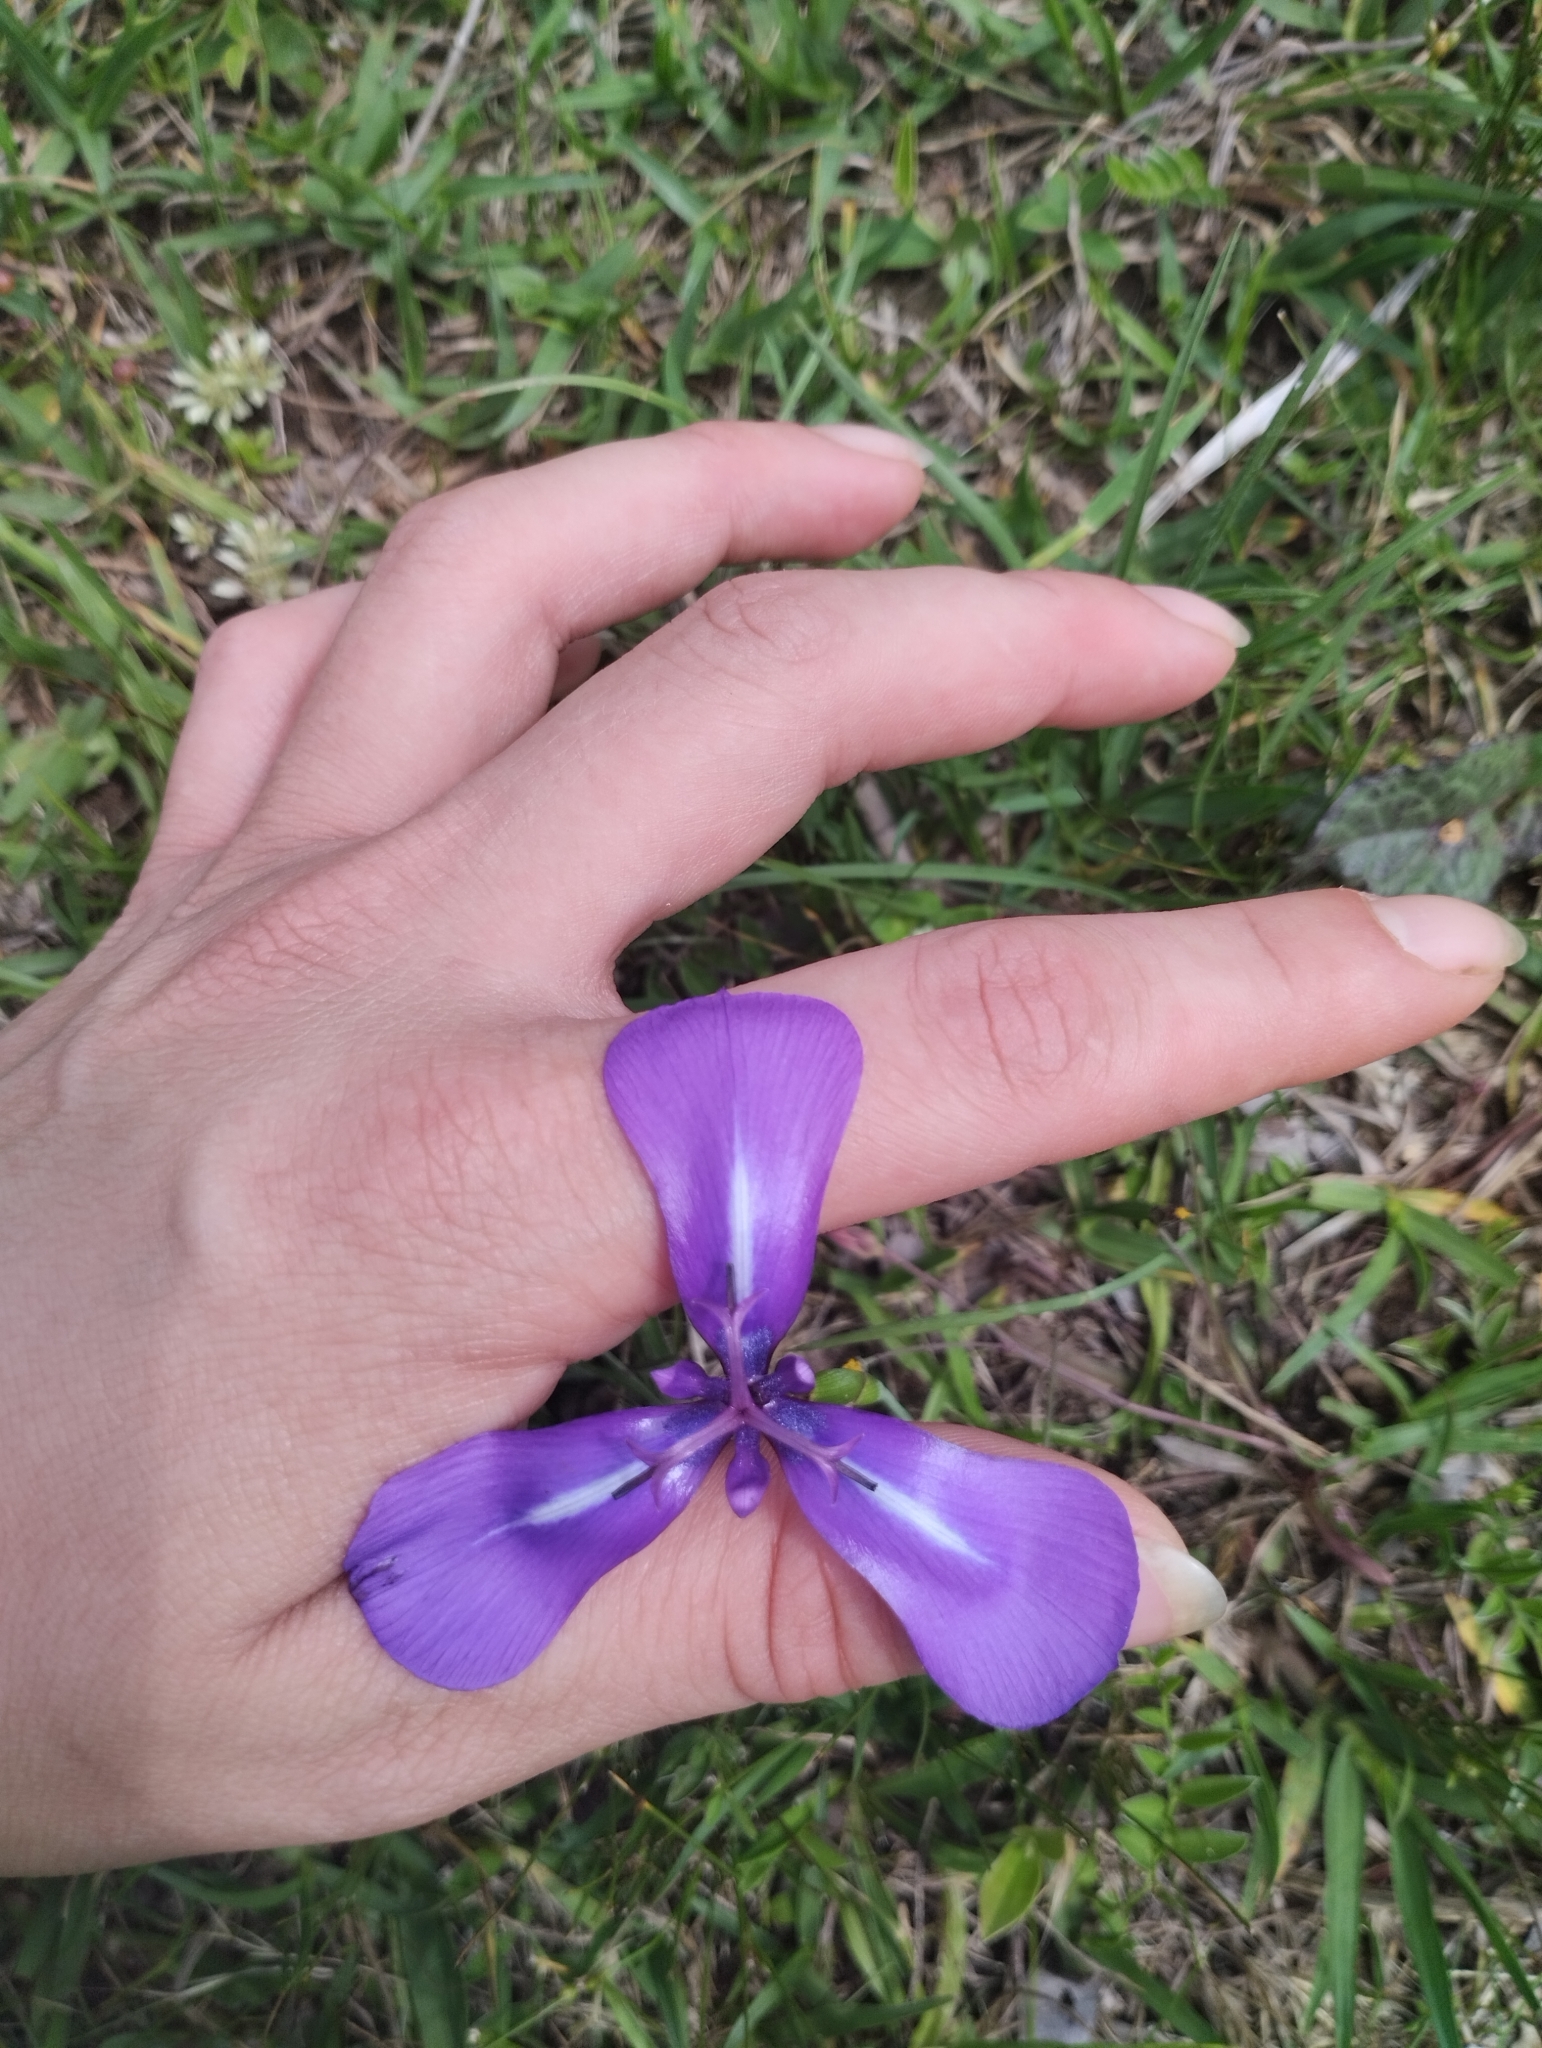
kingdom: Plantae
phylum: Tracheophyta
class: Liliopsida
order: Asparagales
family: Iridaceae
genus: Herbertia
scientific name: Herbertia pulchella
